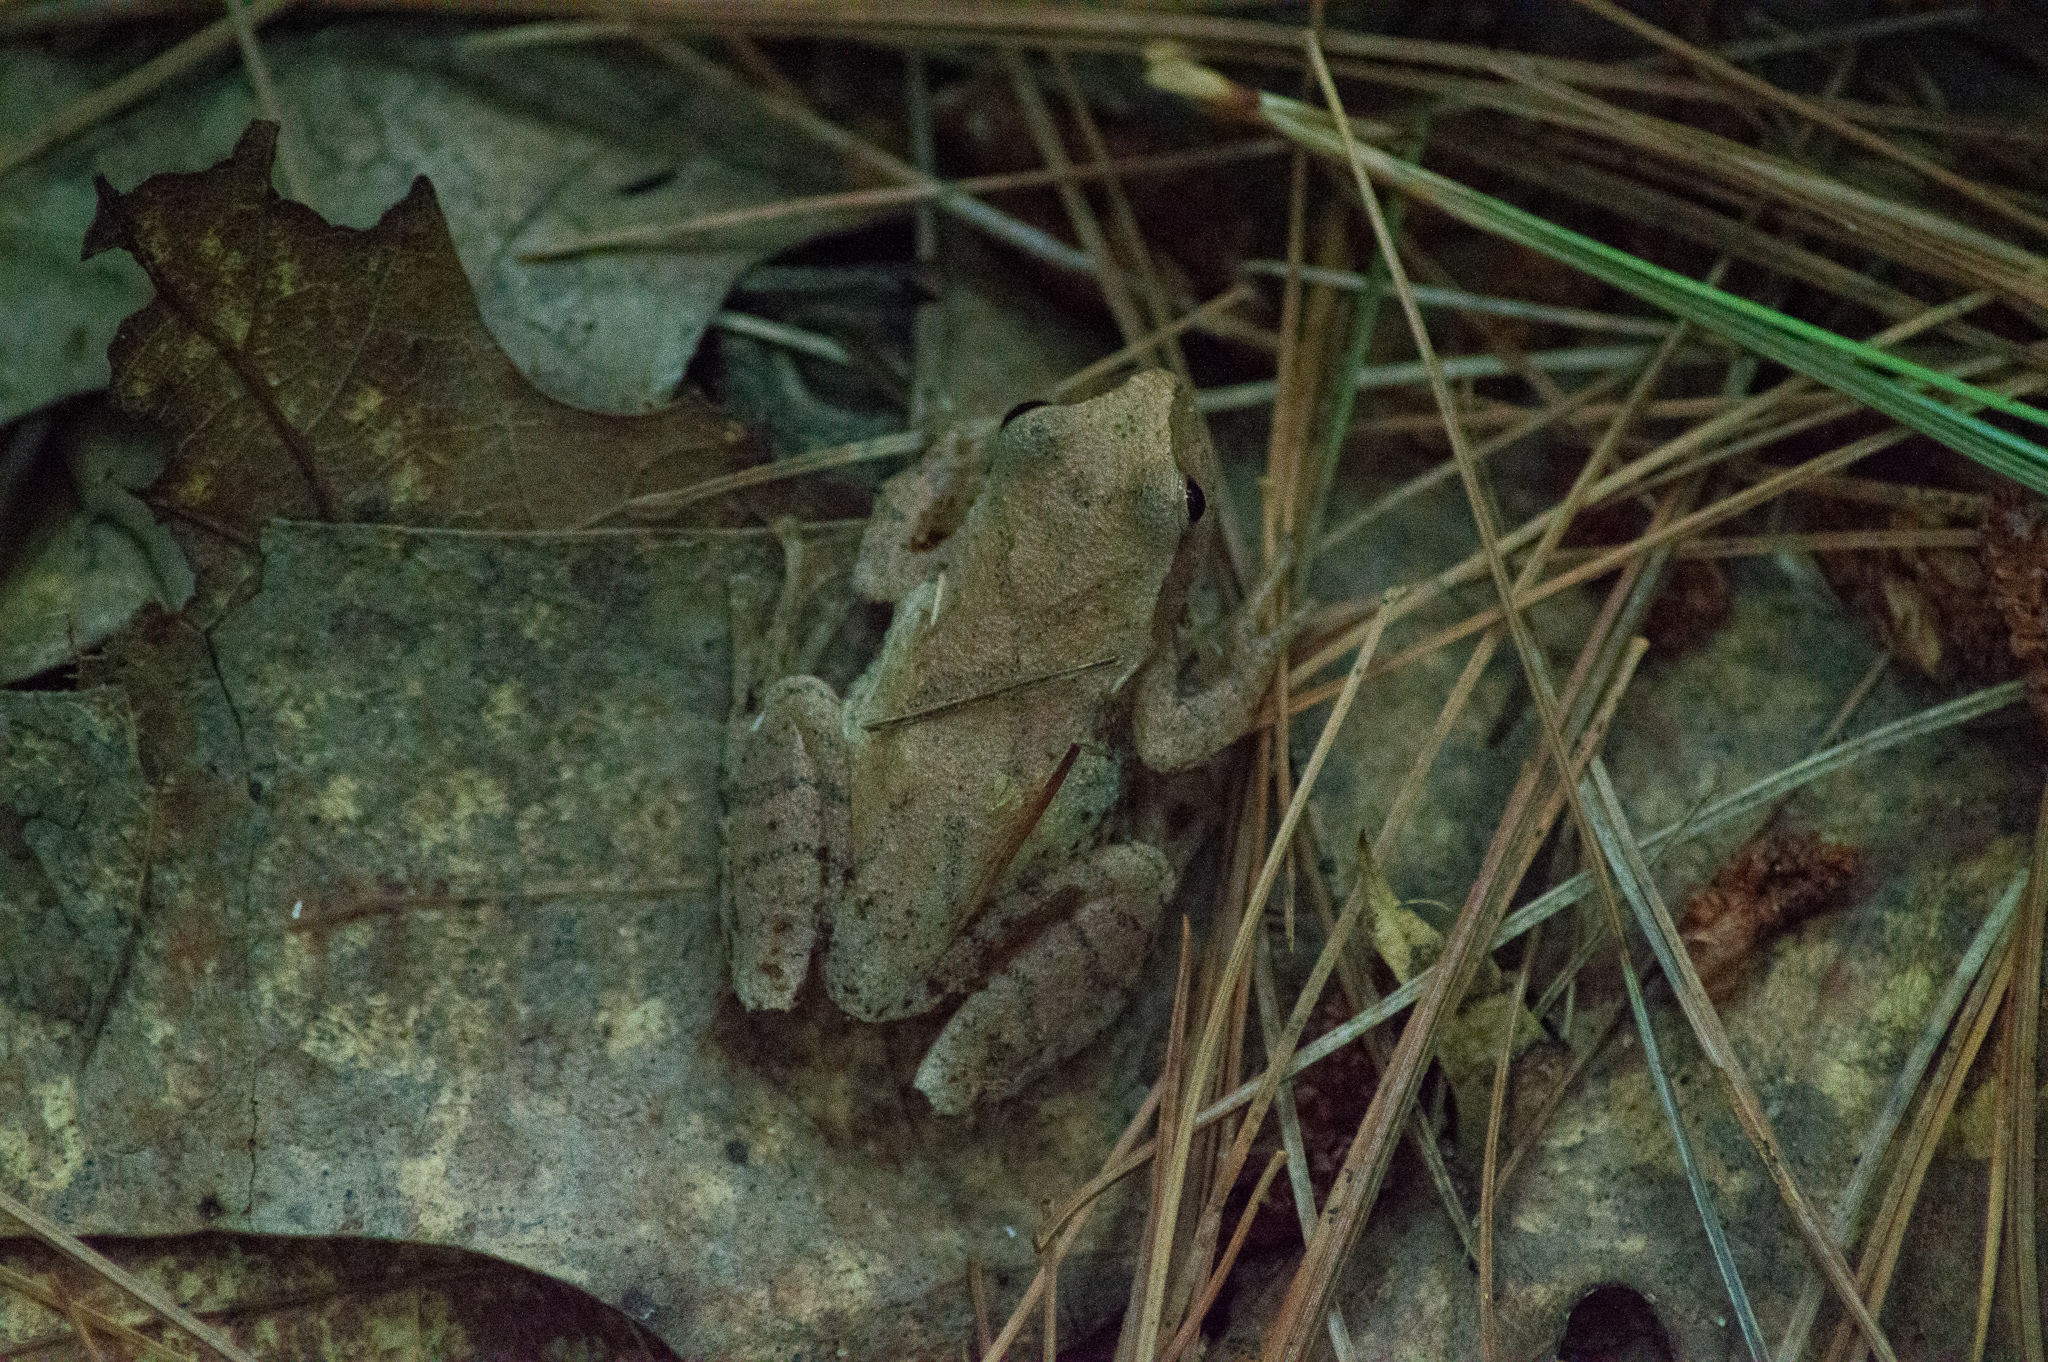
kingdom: Animalia
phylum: Chordata
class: Amphibia
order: Anura
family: Hylidae
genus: Pseudacris
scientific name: Pseudacris crucifer
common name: Spring peeper
